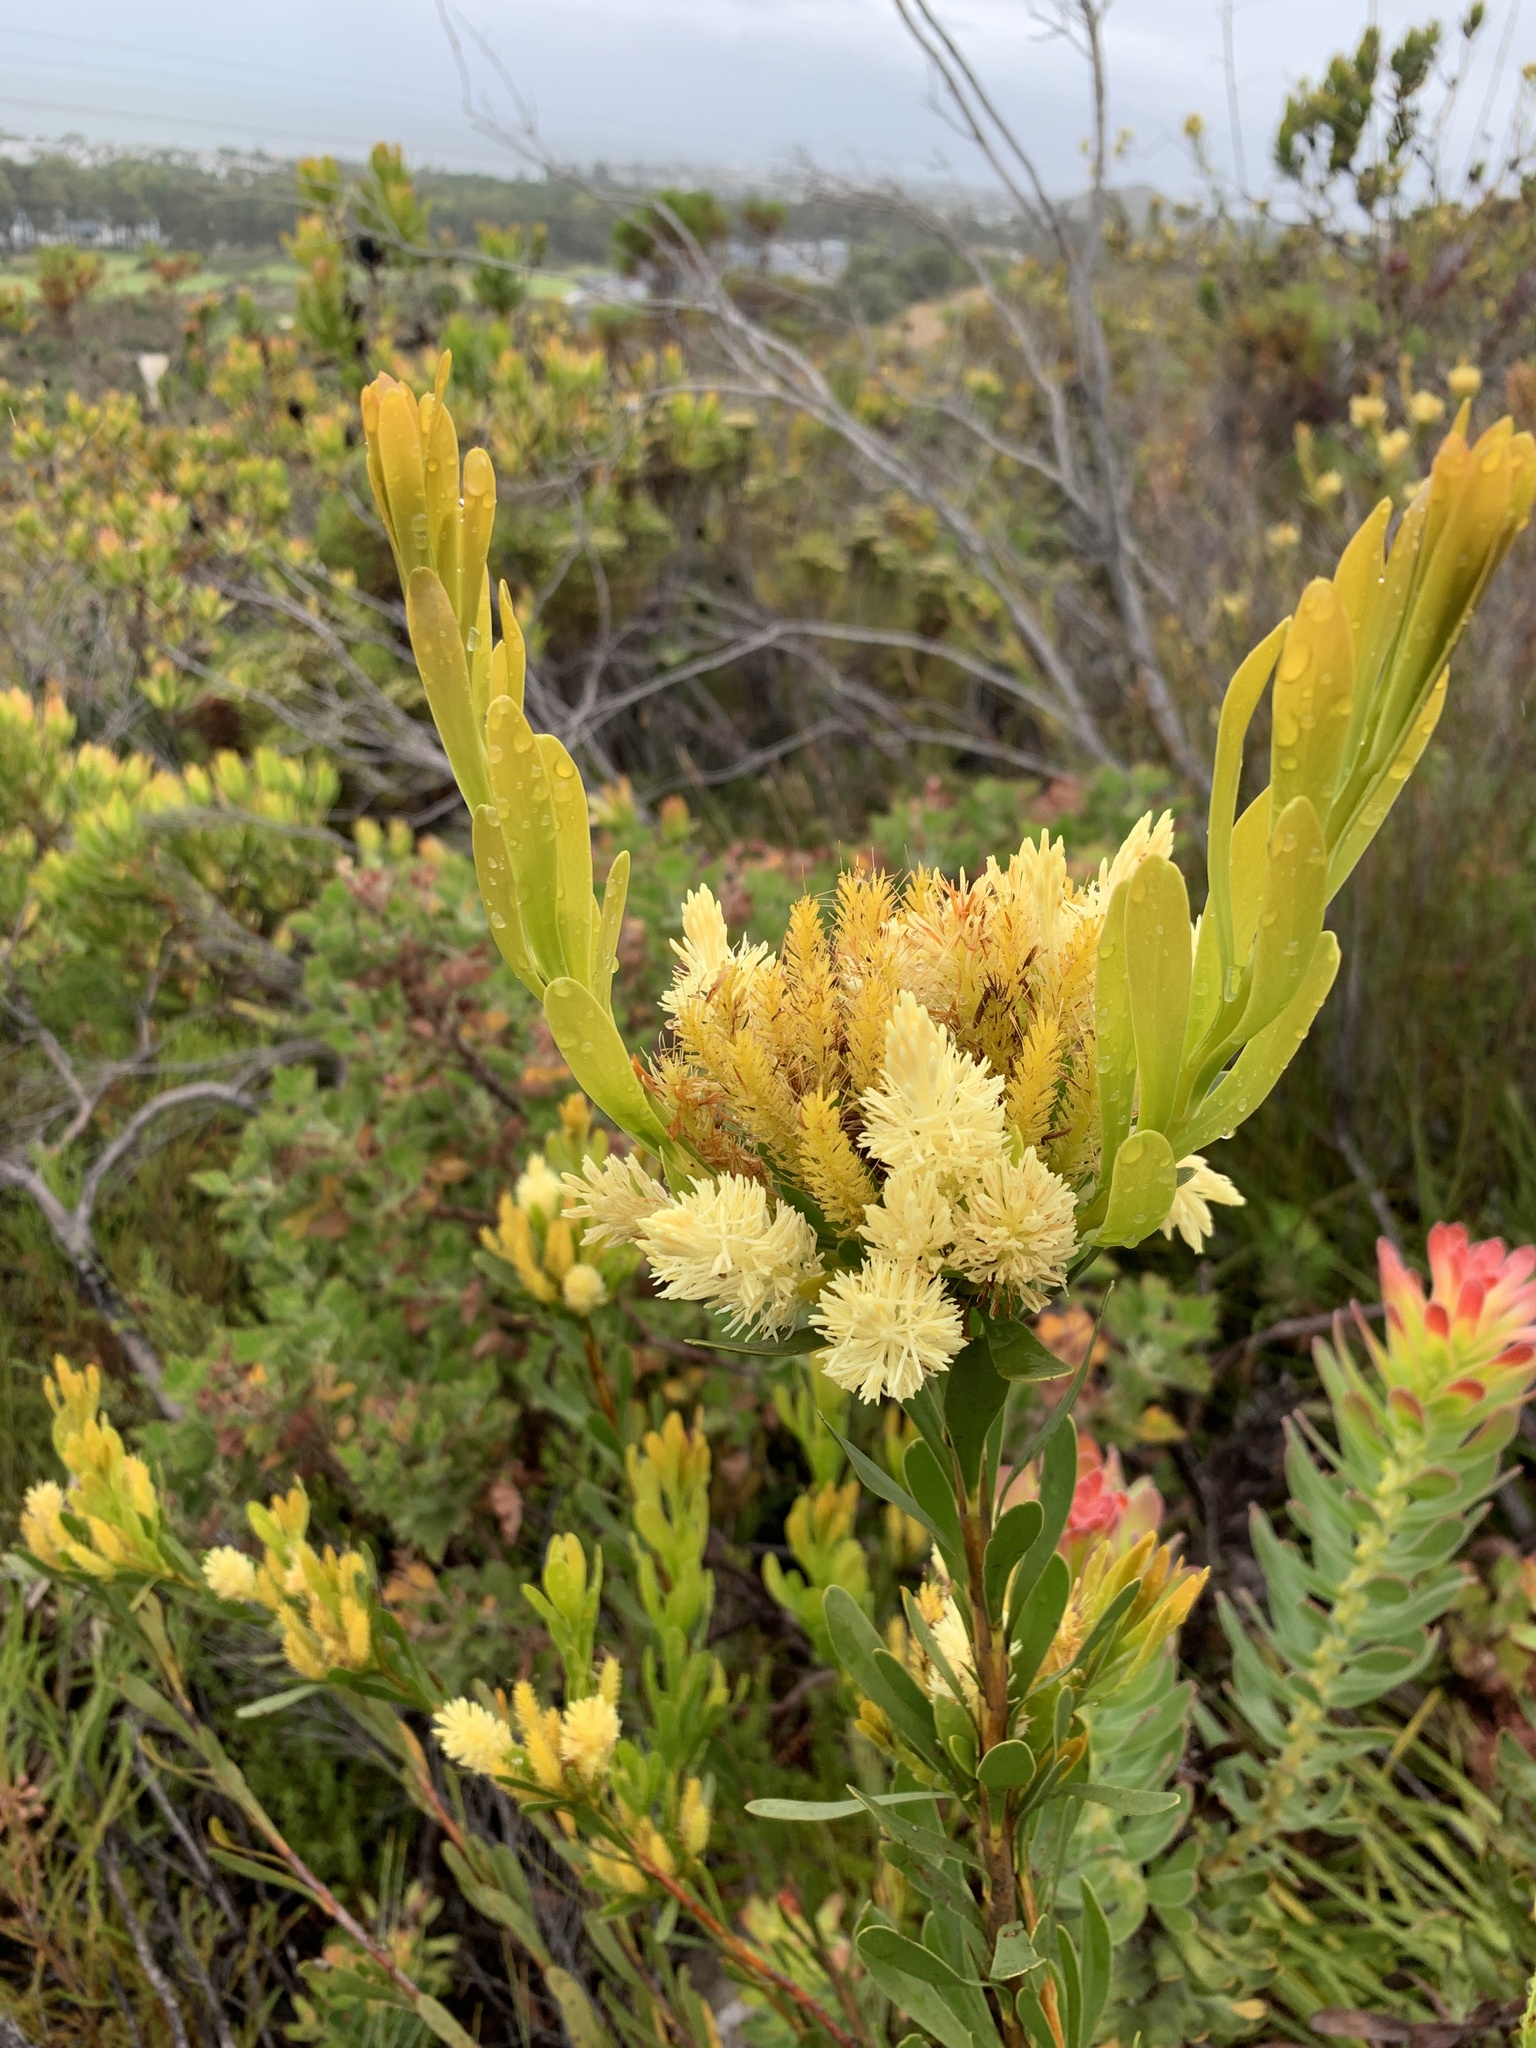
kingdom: Plantae
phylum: Tracheophyta
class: Magnoliopsida
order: Proteales
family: Proteaceae
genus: Aulax
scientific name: Aulax umbellata
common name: Broad-leaf featherbush
